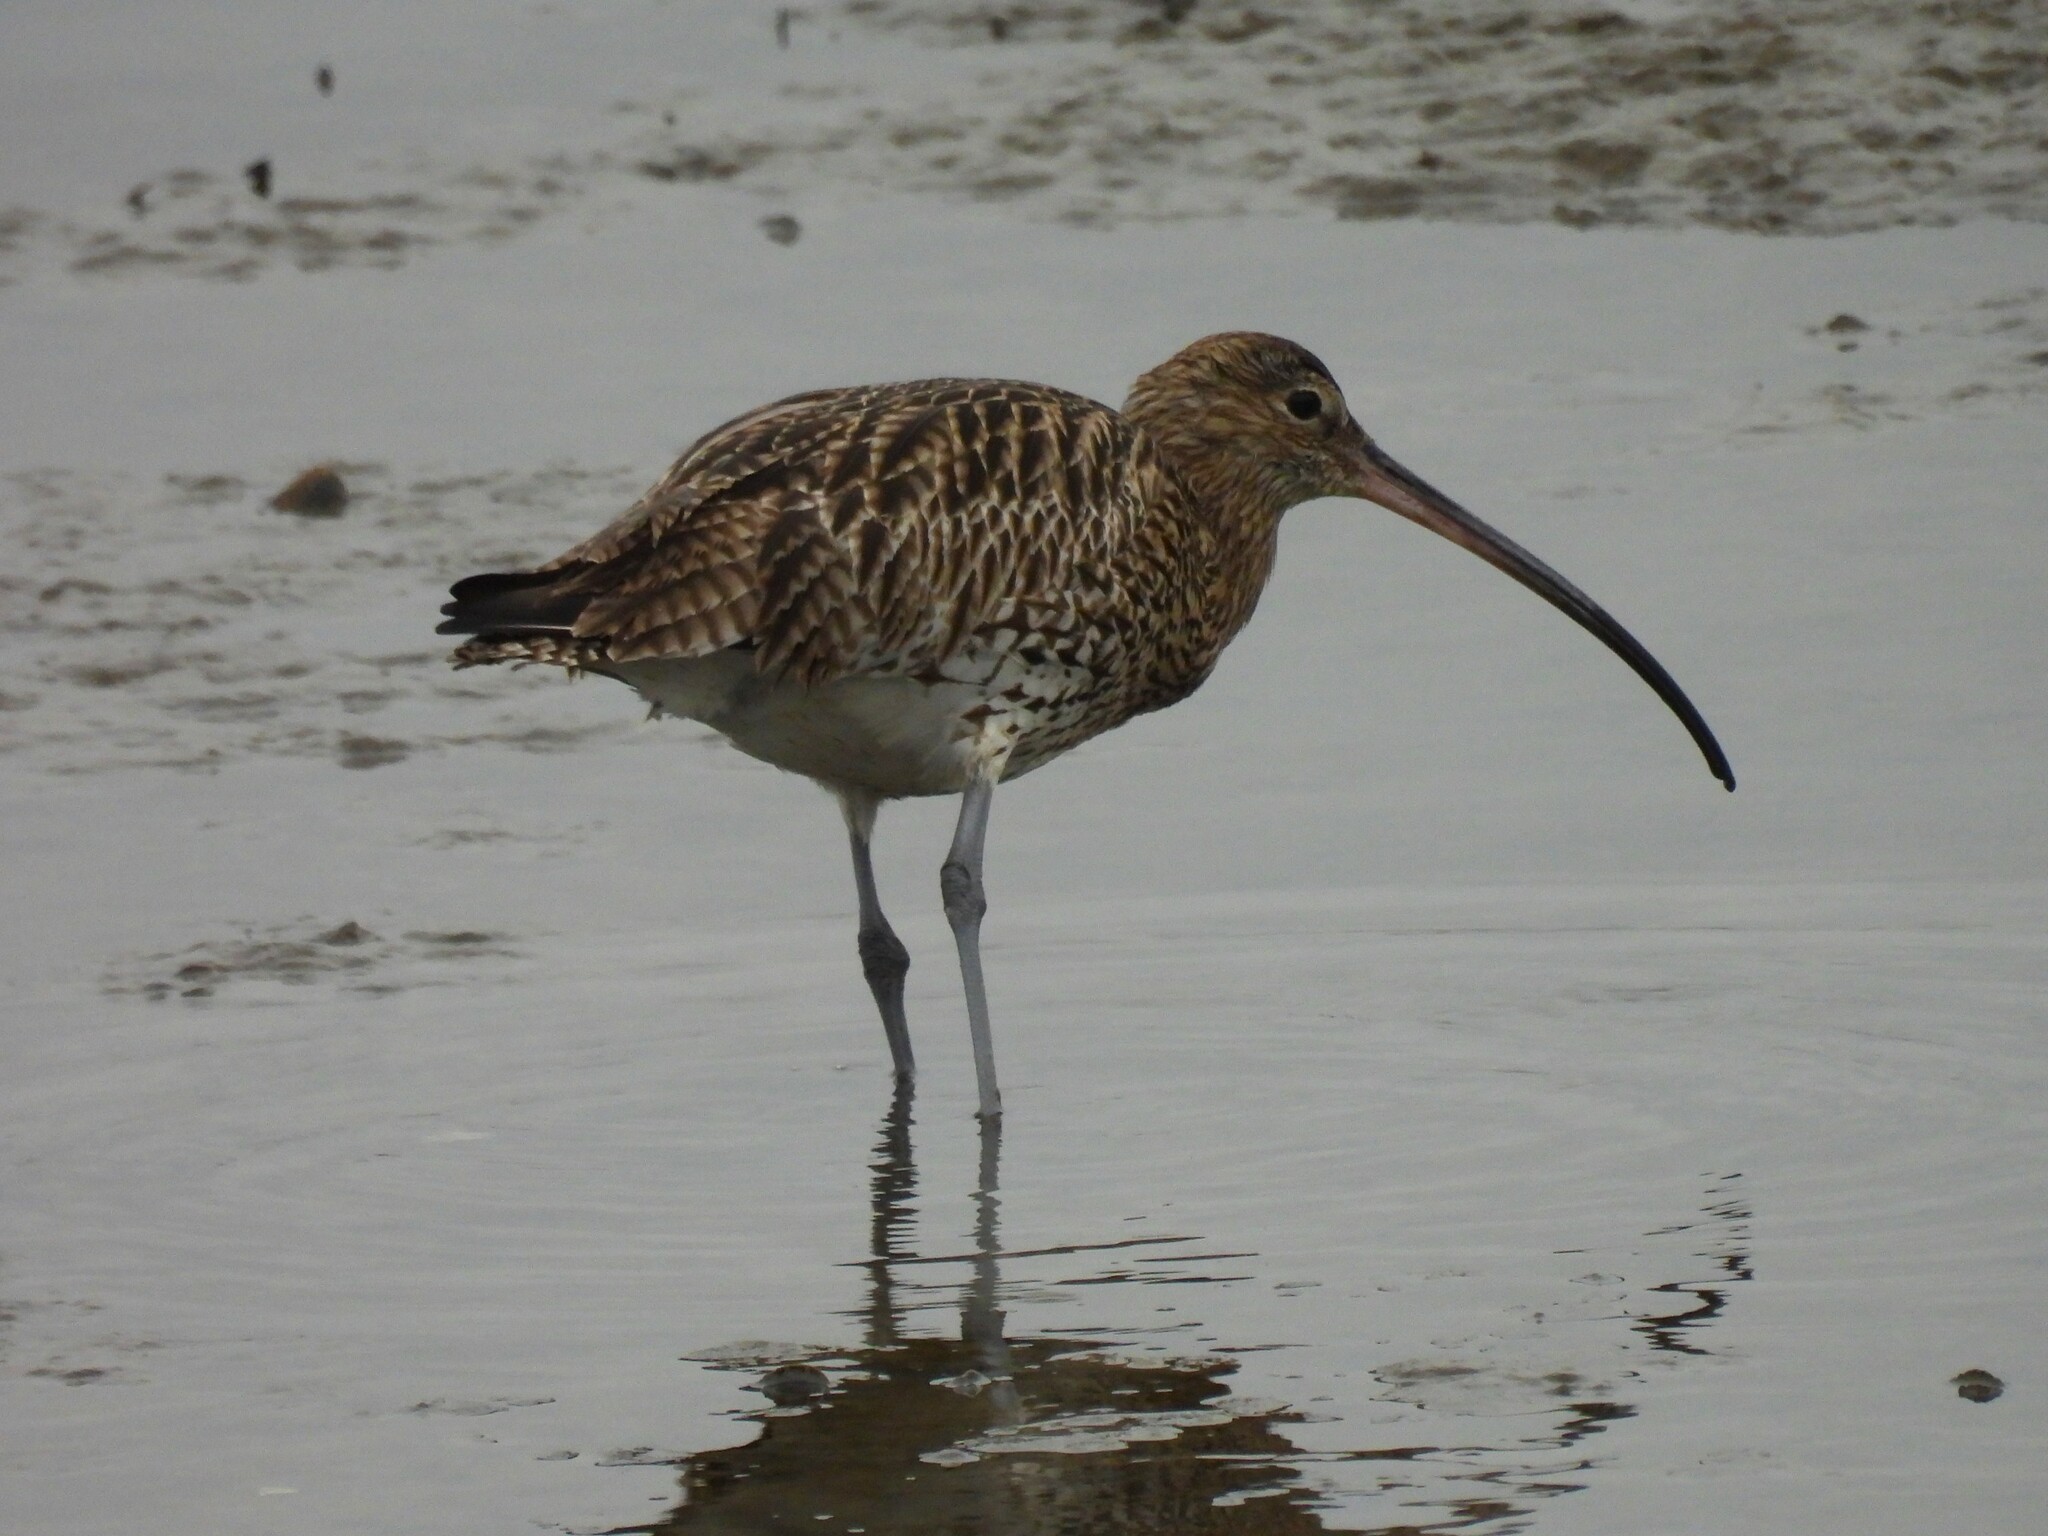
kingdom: Animalia
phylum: Chordata
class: Aves
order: Charadriiformes
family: Scolopacidae
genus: Numenius
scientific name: Numenius arquata
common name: Eurasian curlew
